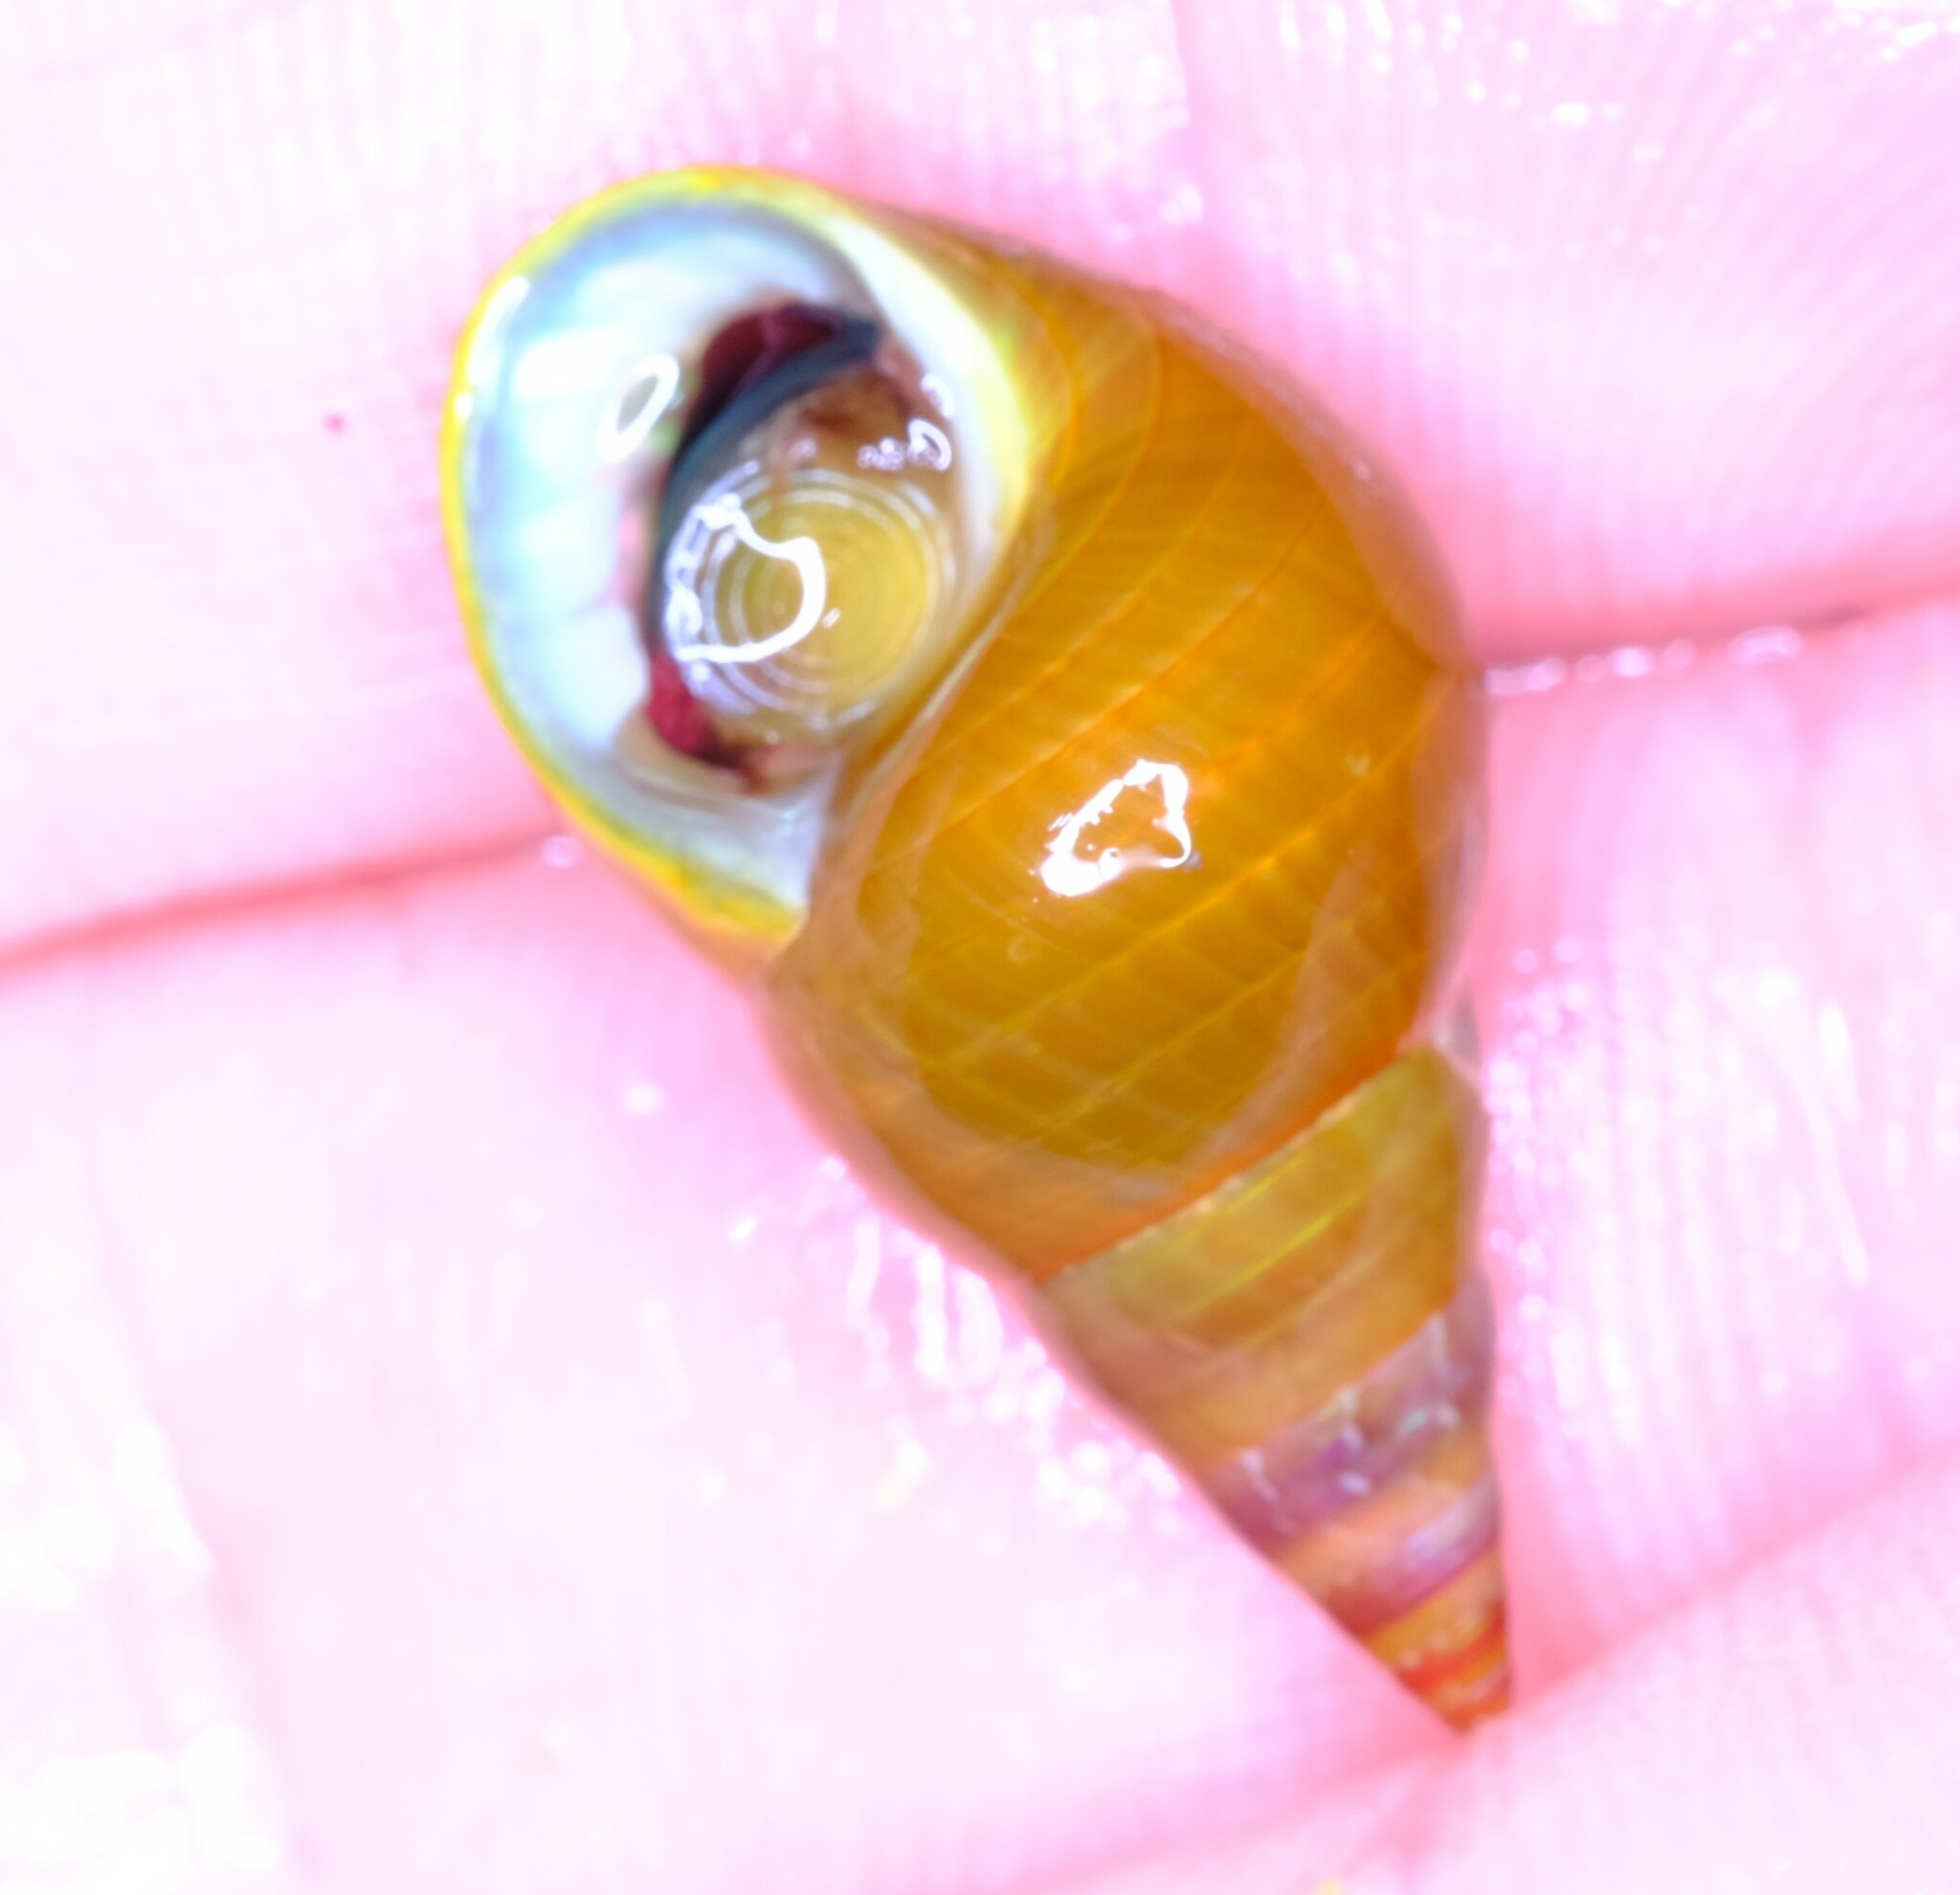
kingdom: Animalia
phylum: Mollusca
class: Gastropoda
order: Trochida
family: Trochidae
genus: Phasianotrochus
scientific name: Phasianotrochus eximius
